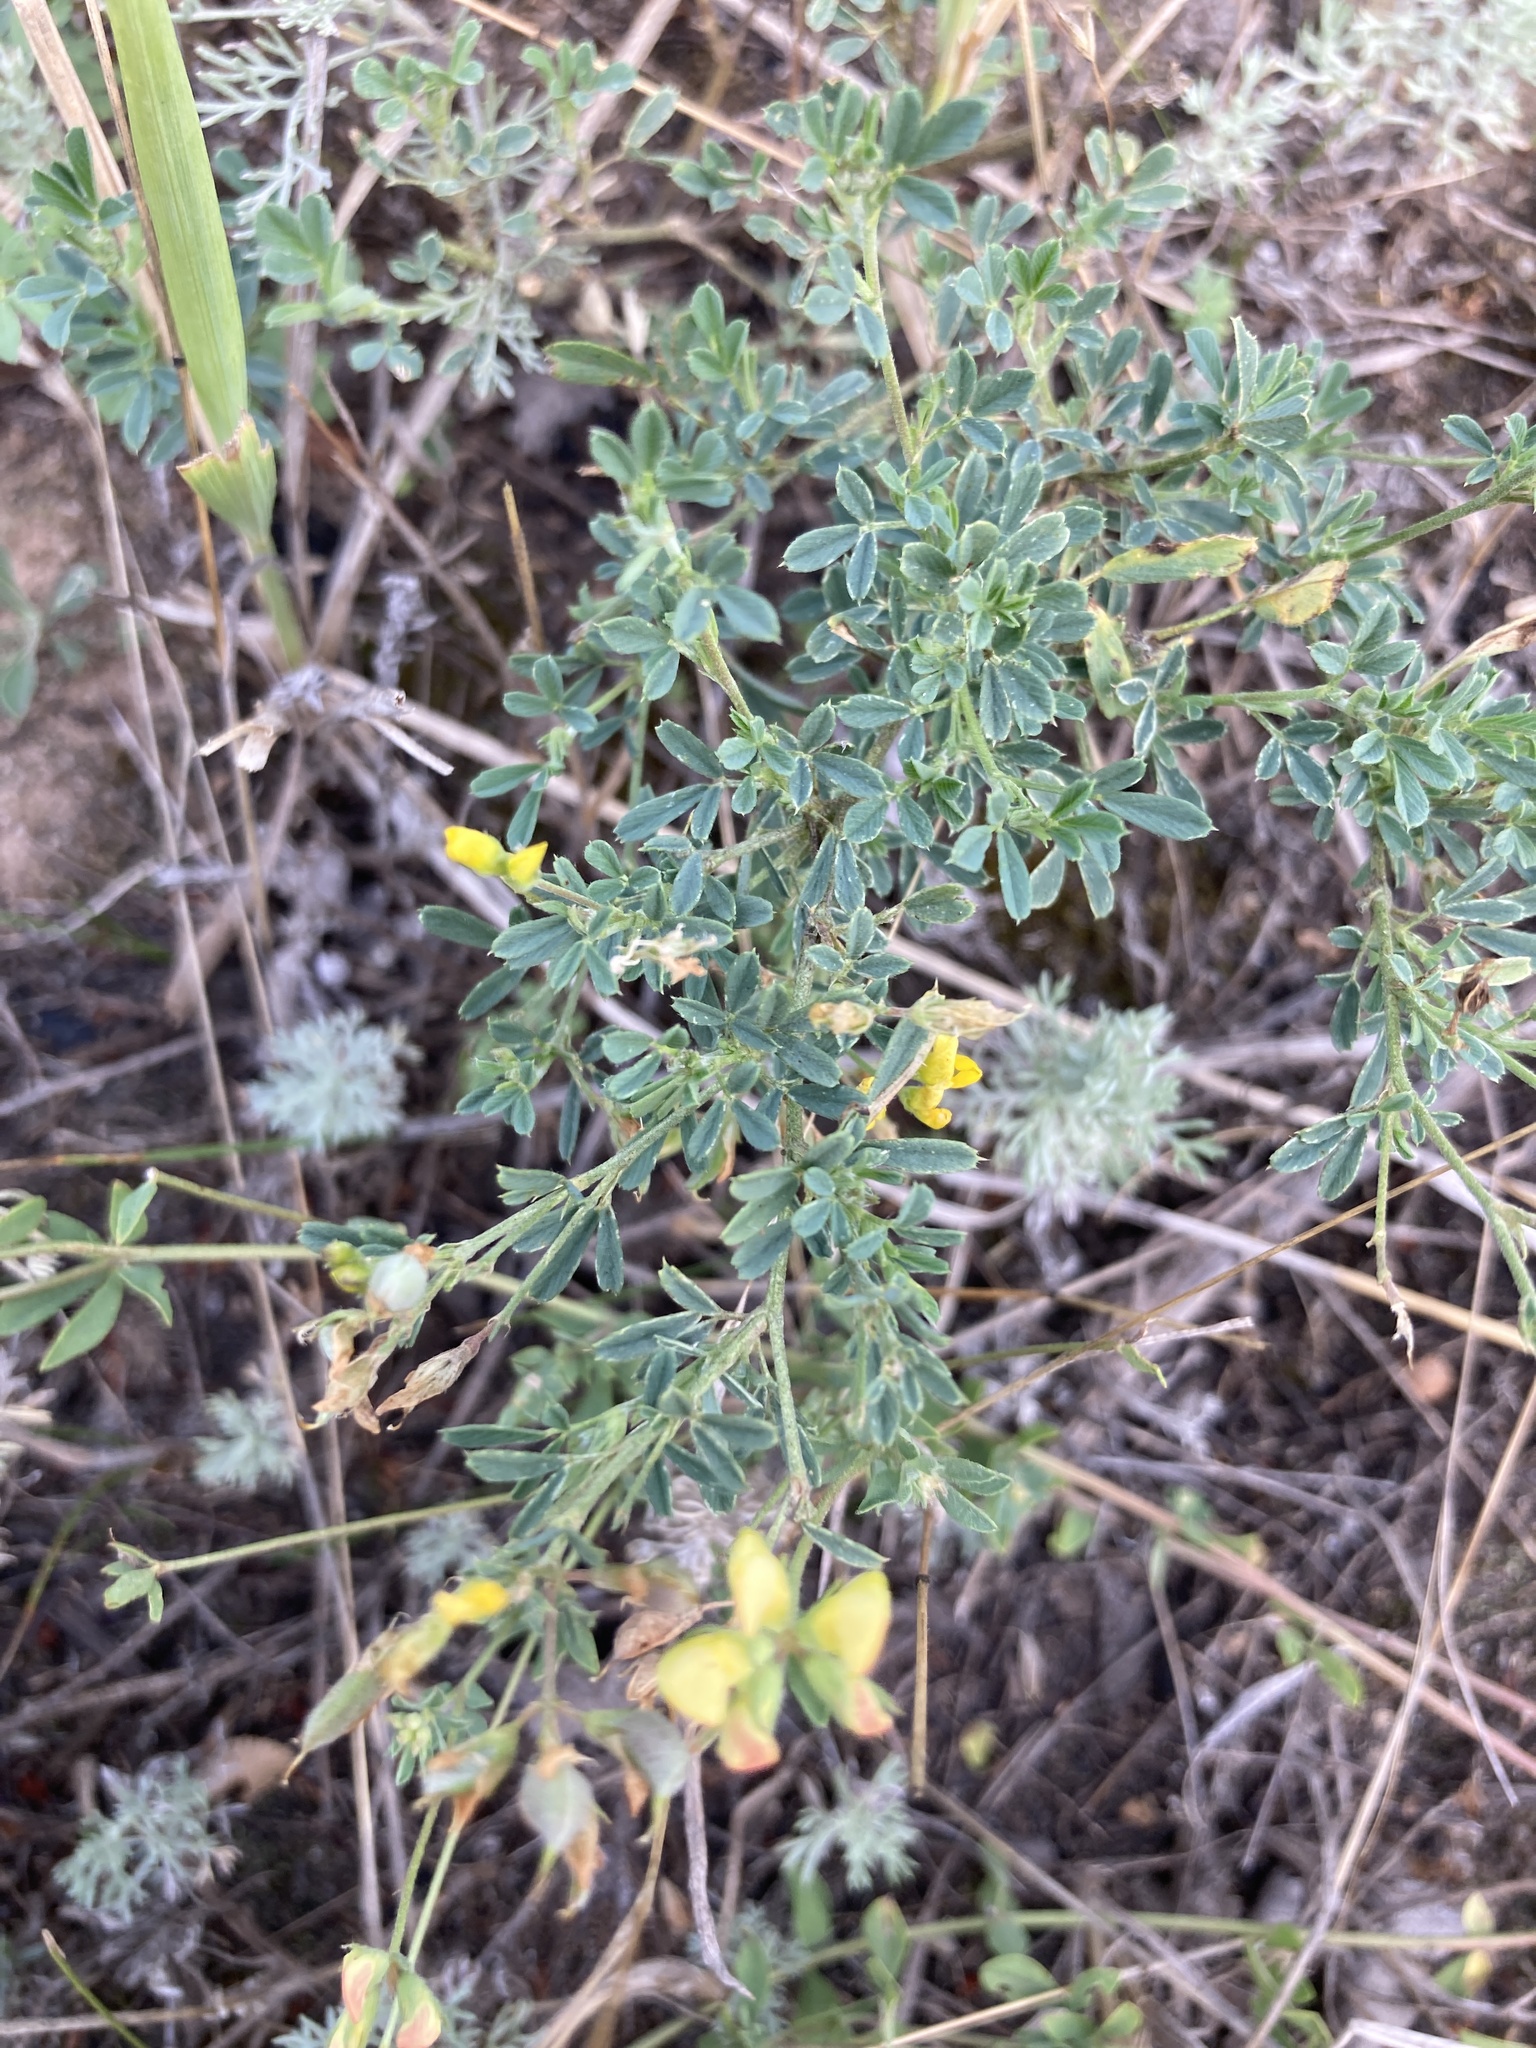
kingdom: Plantae
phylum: Tracheophyta
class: Magnoliopsida
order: Fabales
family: Fabaceae
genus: Medicago
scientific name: Medicago falcata
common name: Sickle medick
